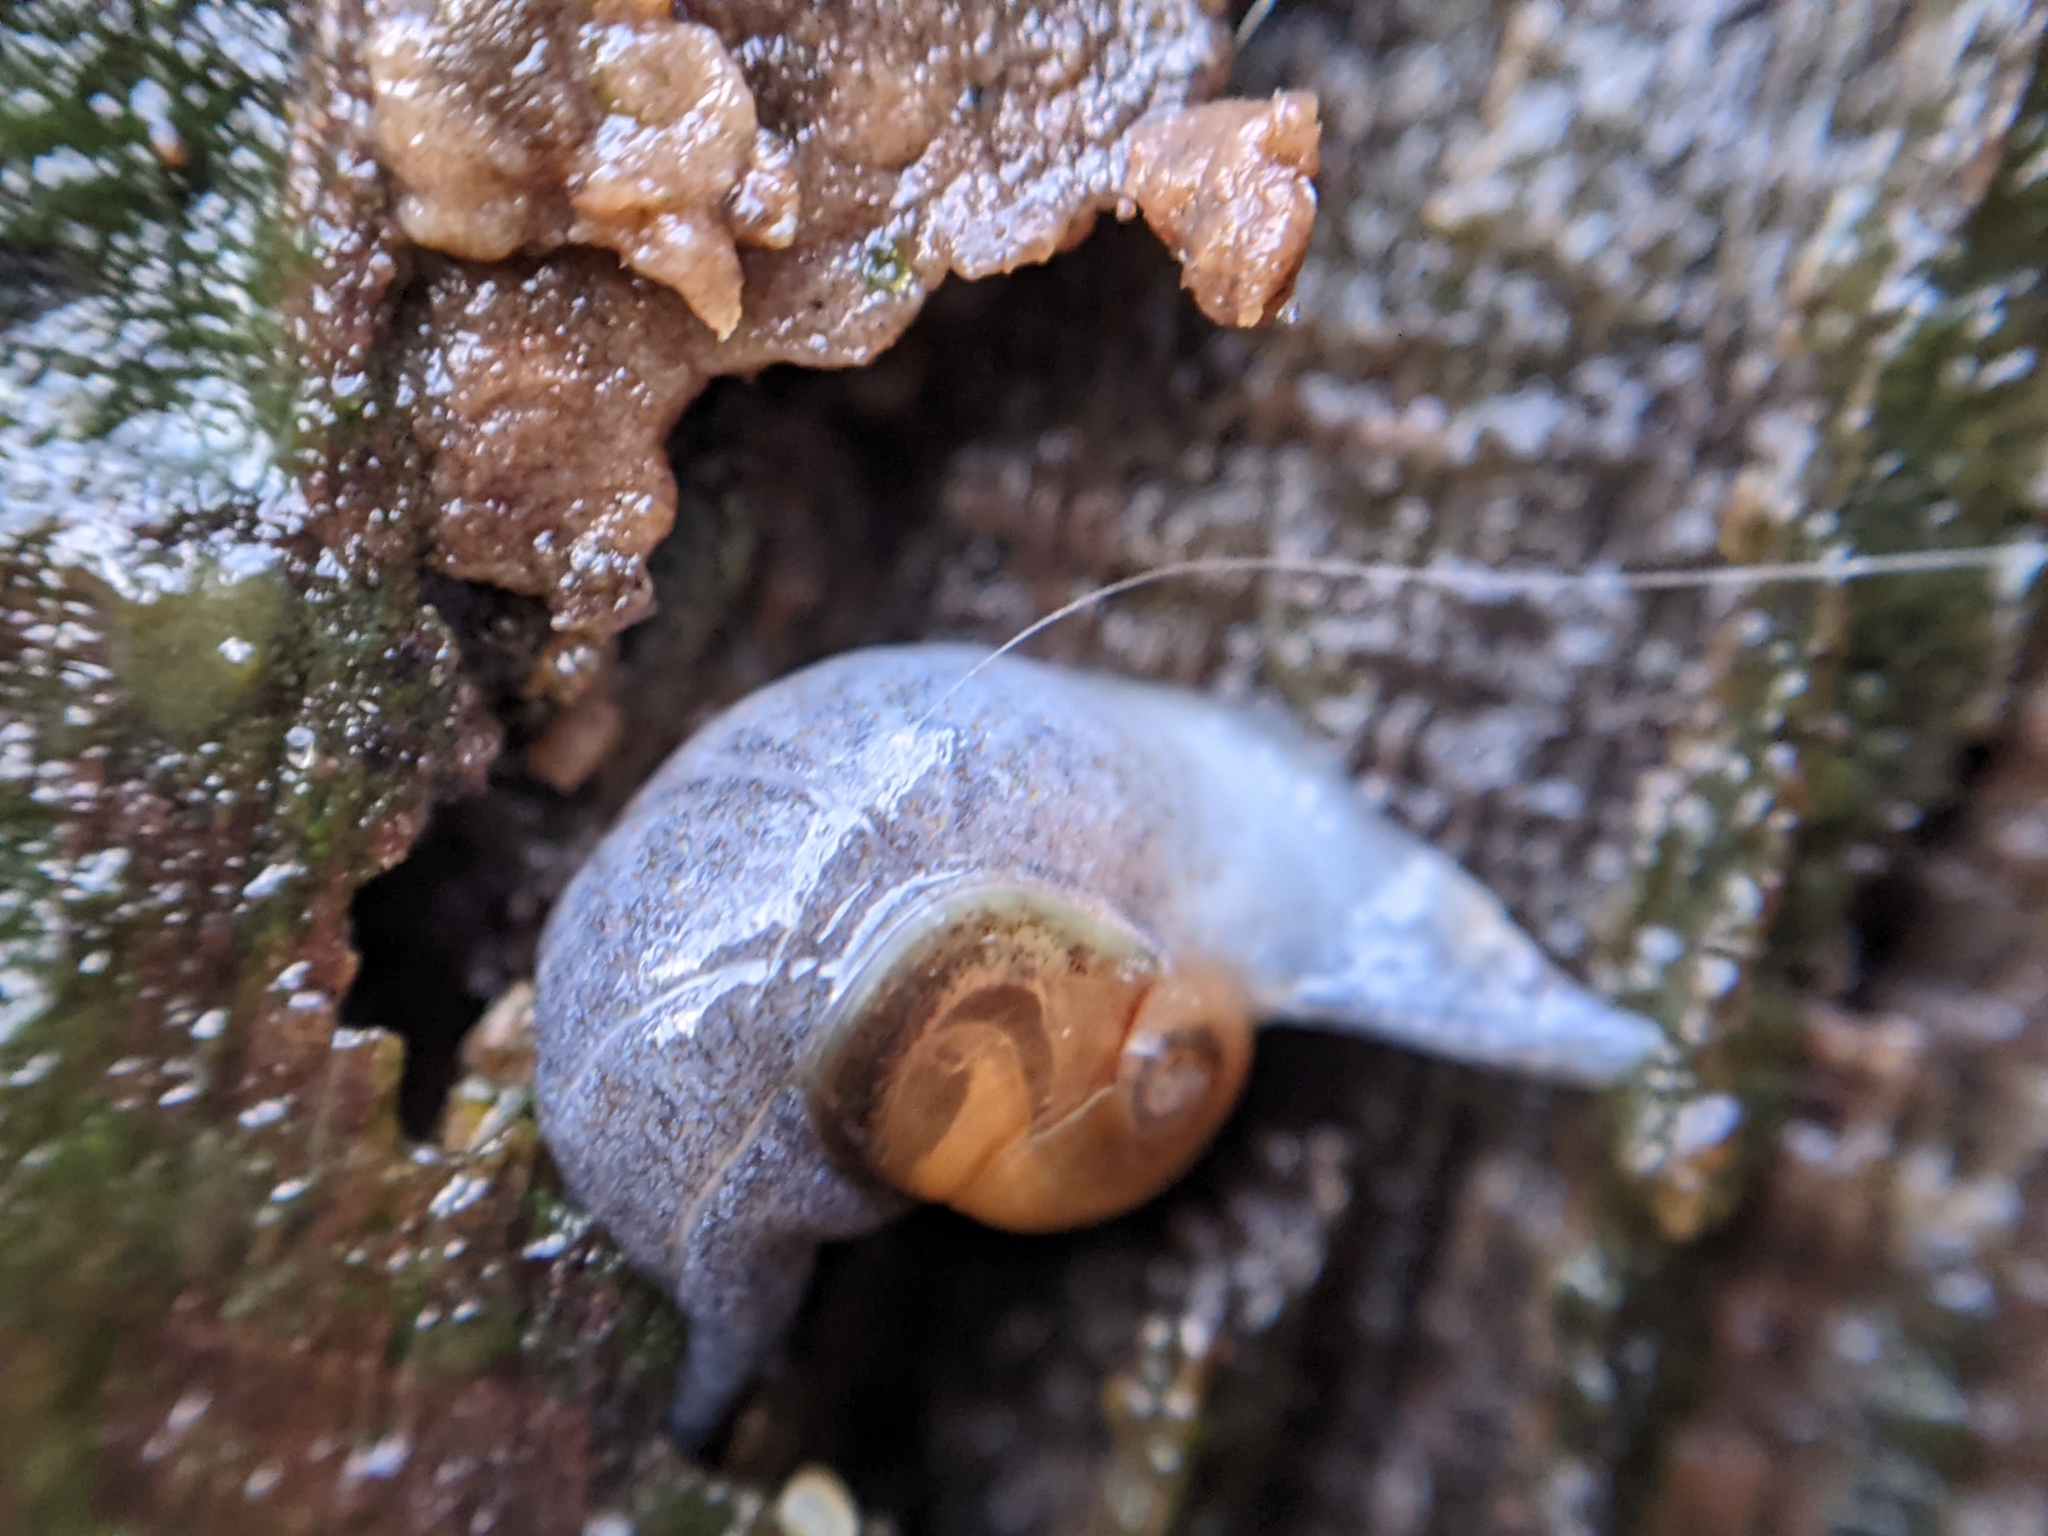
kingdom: Animalia
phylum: Mollusca
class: Gastropoda
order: Stylommatophora
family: Oxychilidae
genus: Daudebardia
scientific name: Daudebardia rufa
